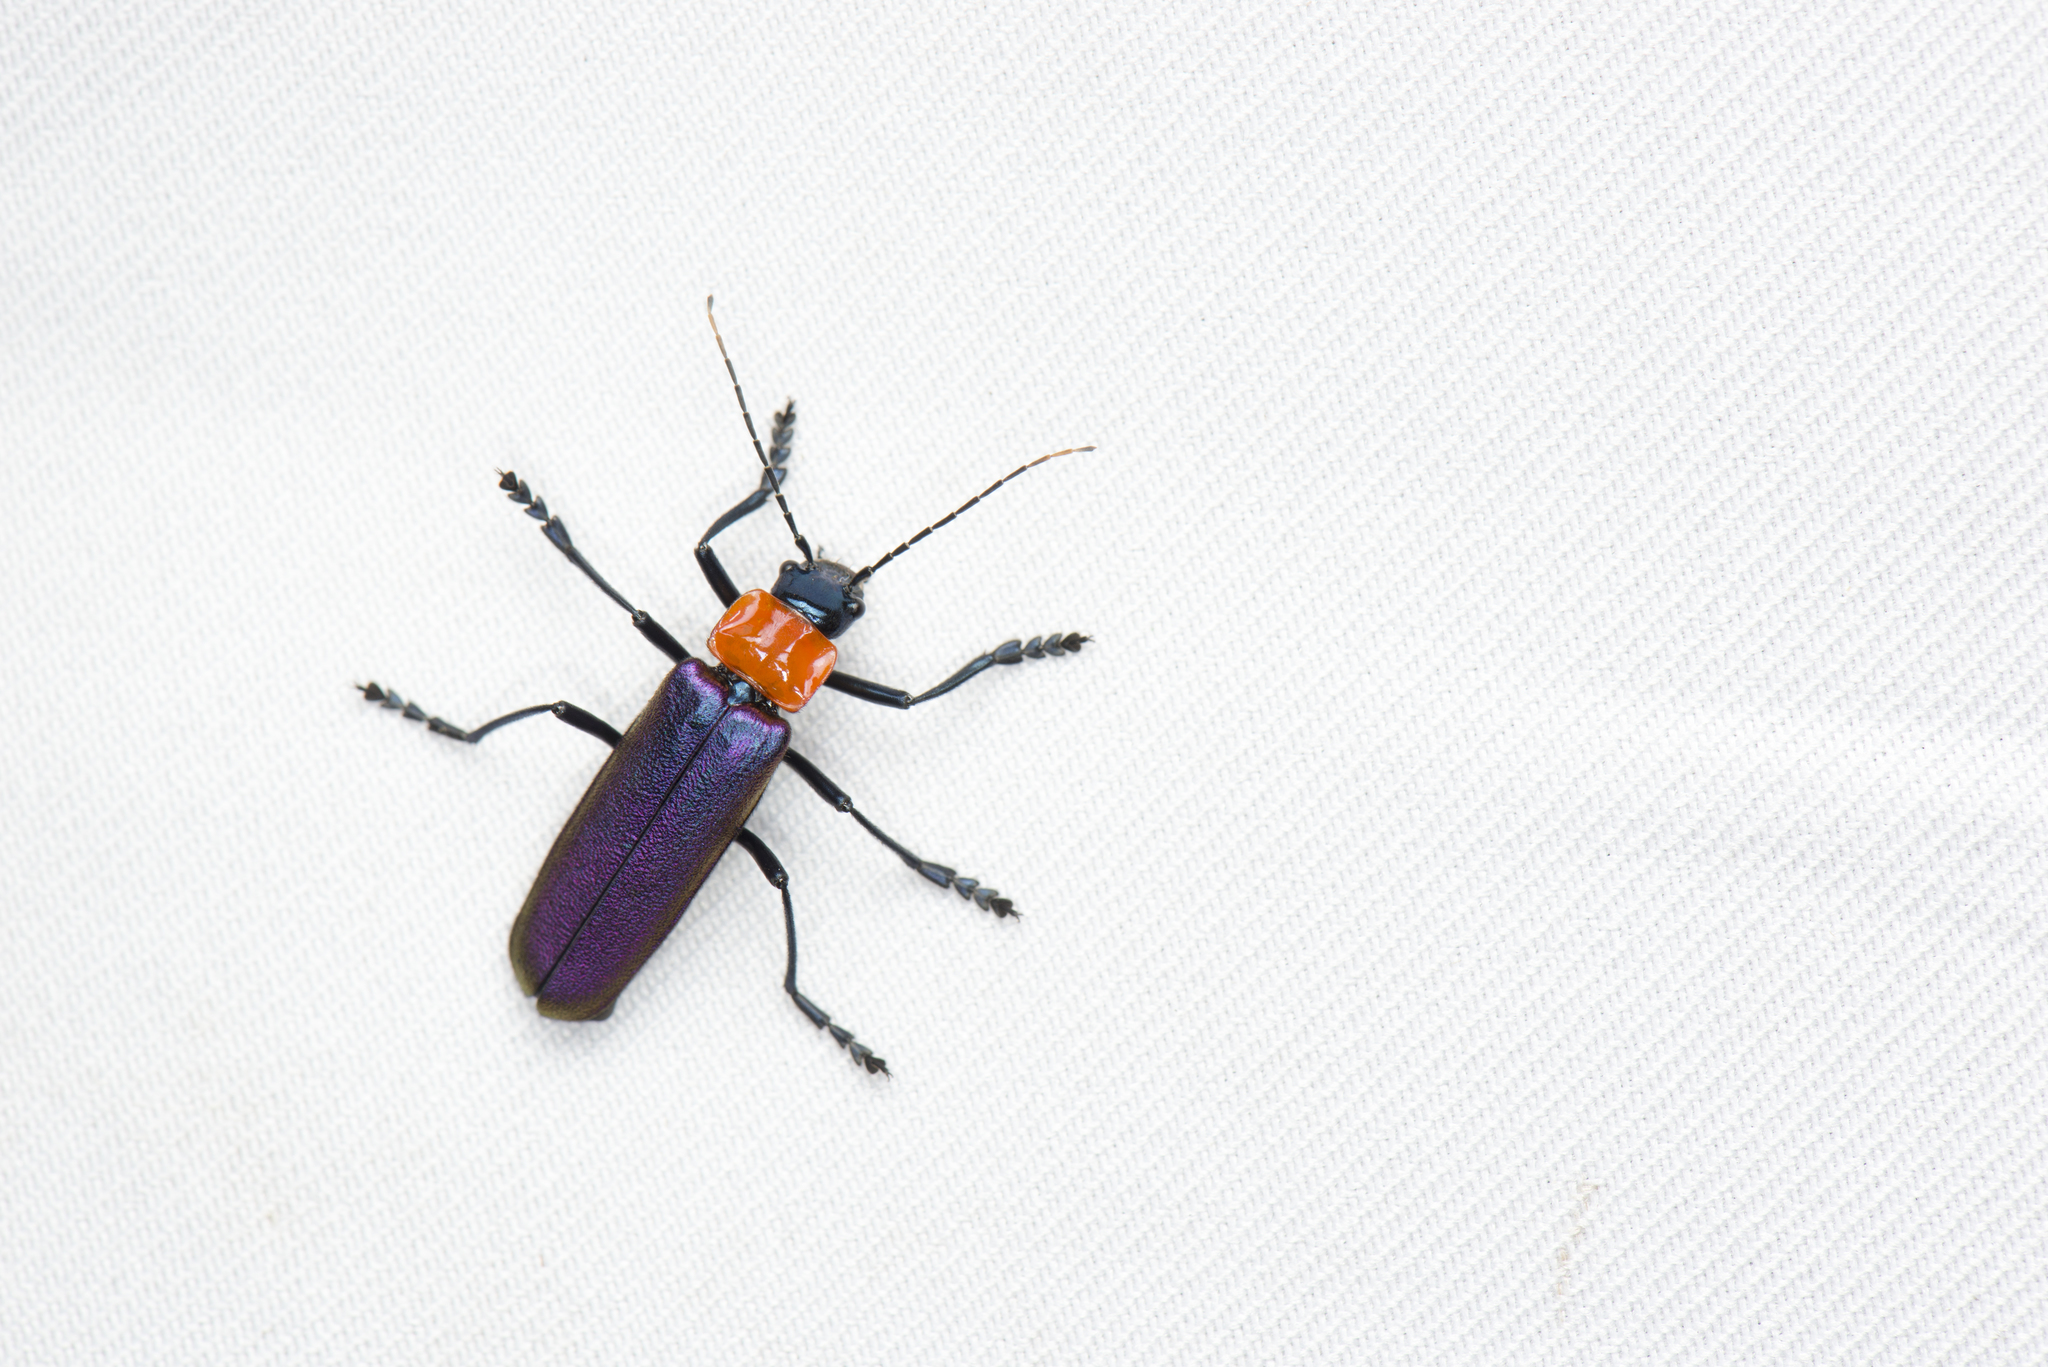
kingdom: Animalia
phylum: Arthropoda
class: Insecta
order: Coleoptera
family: Cantharidae
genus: Themus
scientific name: Themus purpuratus
